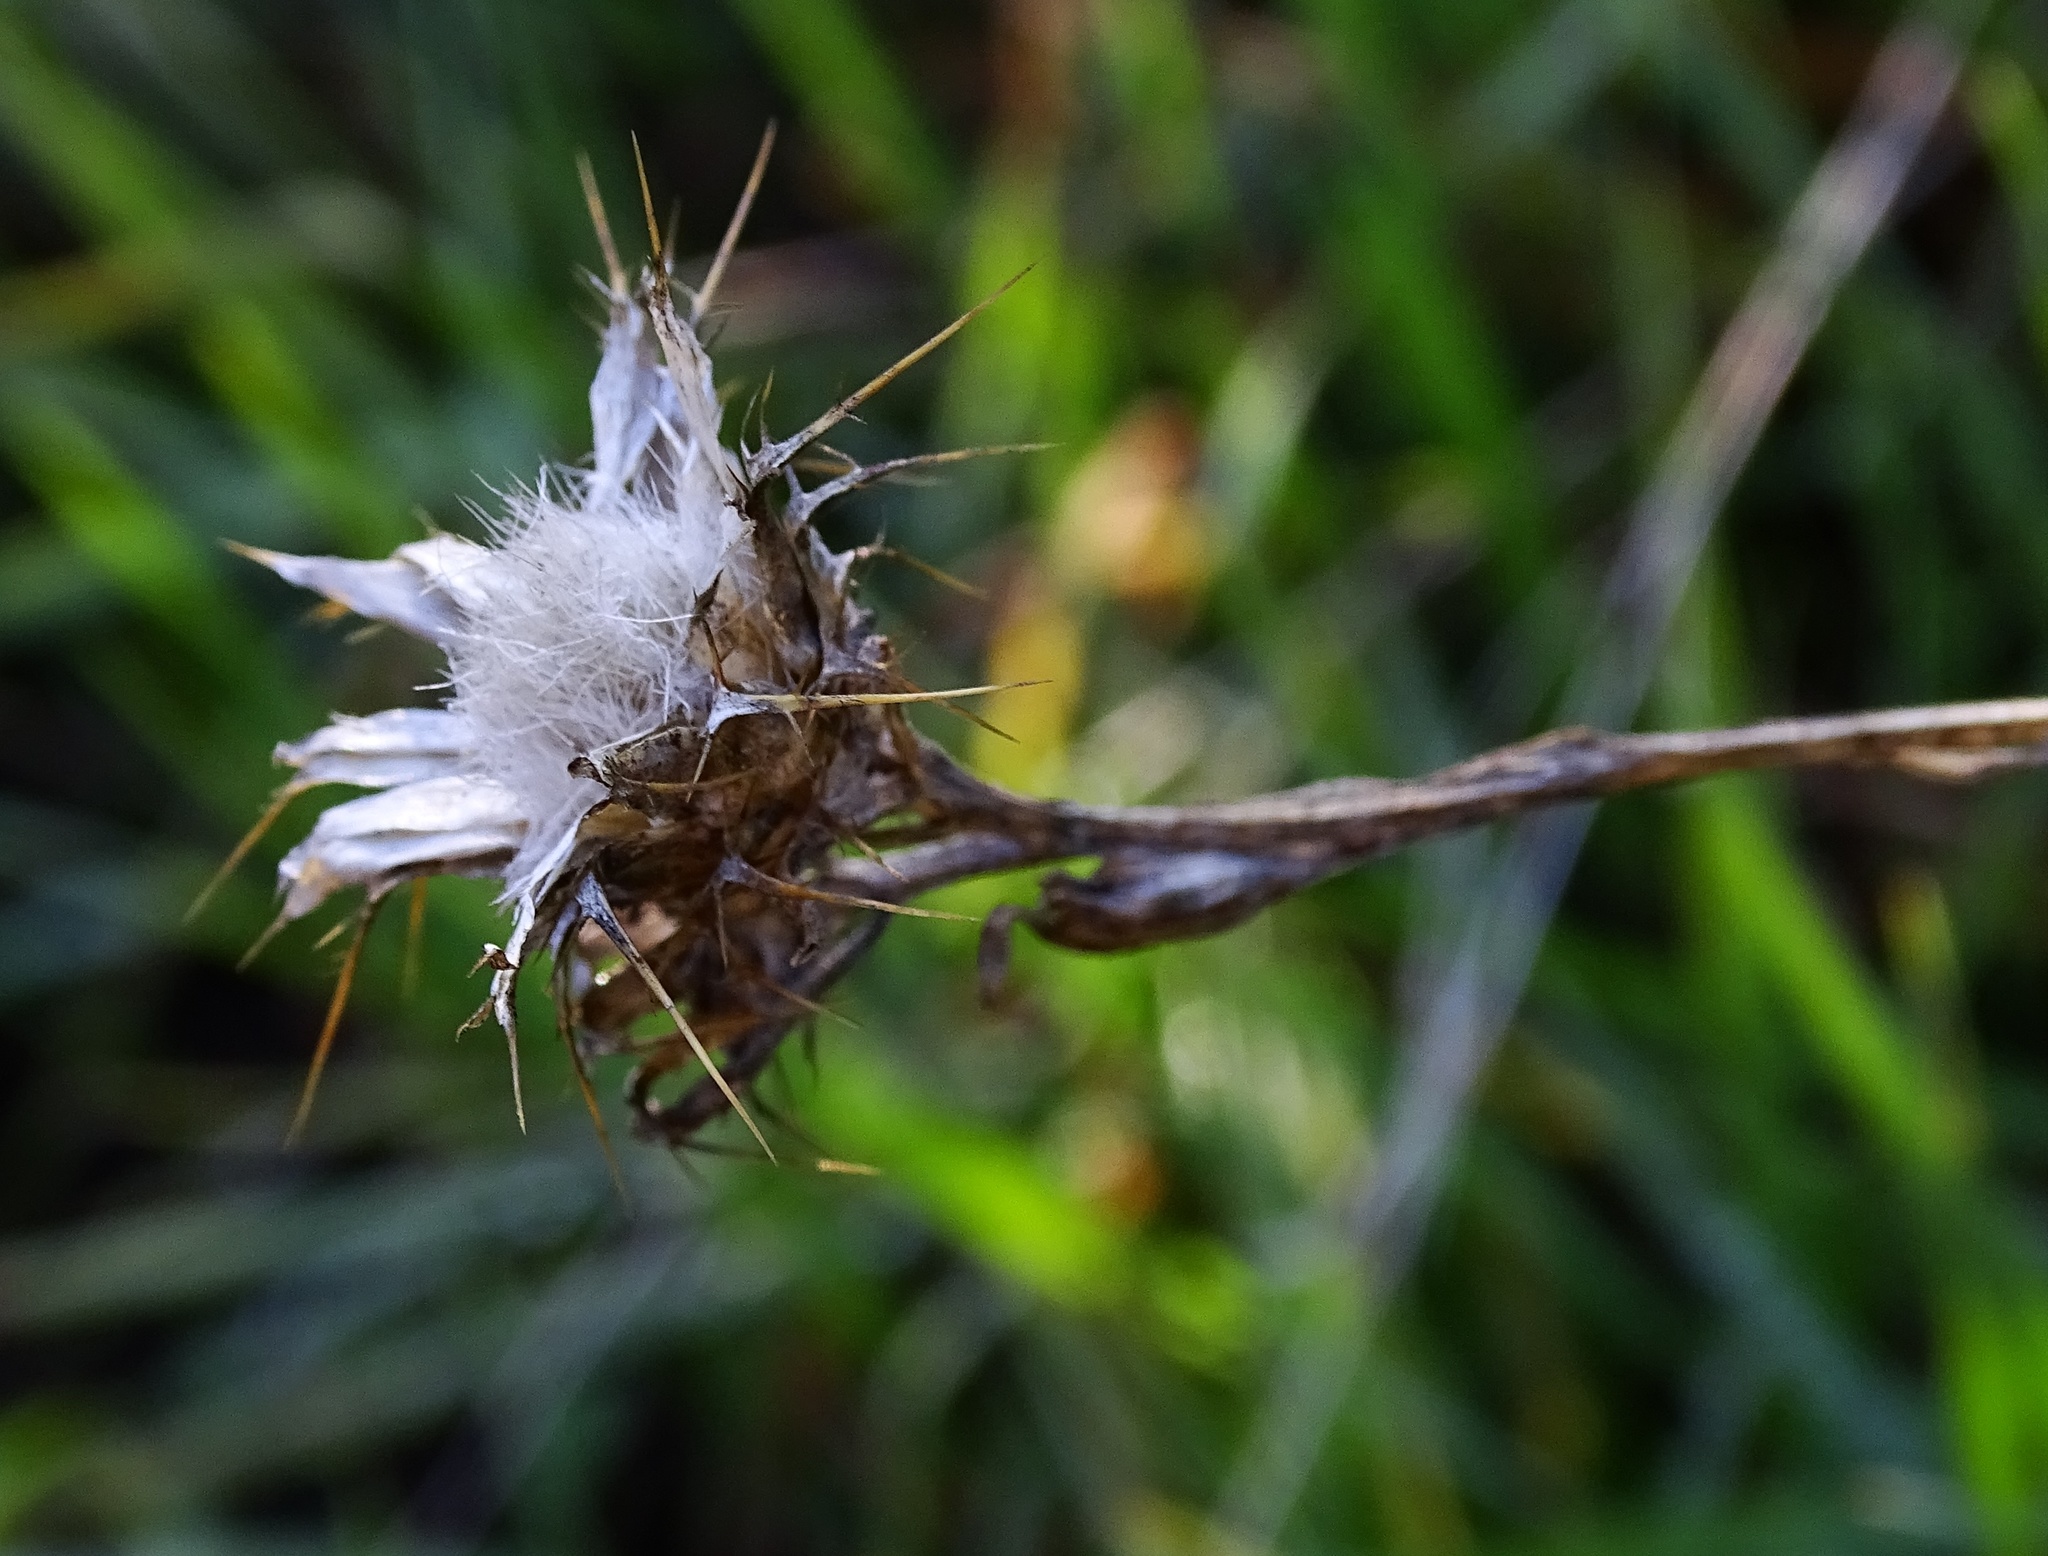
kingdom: Plantae
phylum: Tracheophyta
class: Magnoliopsida
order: Asterales
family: Asteraceae
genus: Centaurea
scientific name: Centaurea melitensis
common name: Maltese star-thistle
